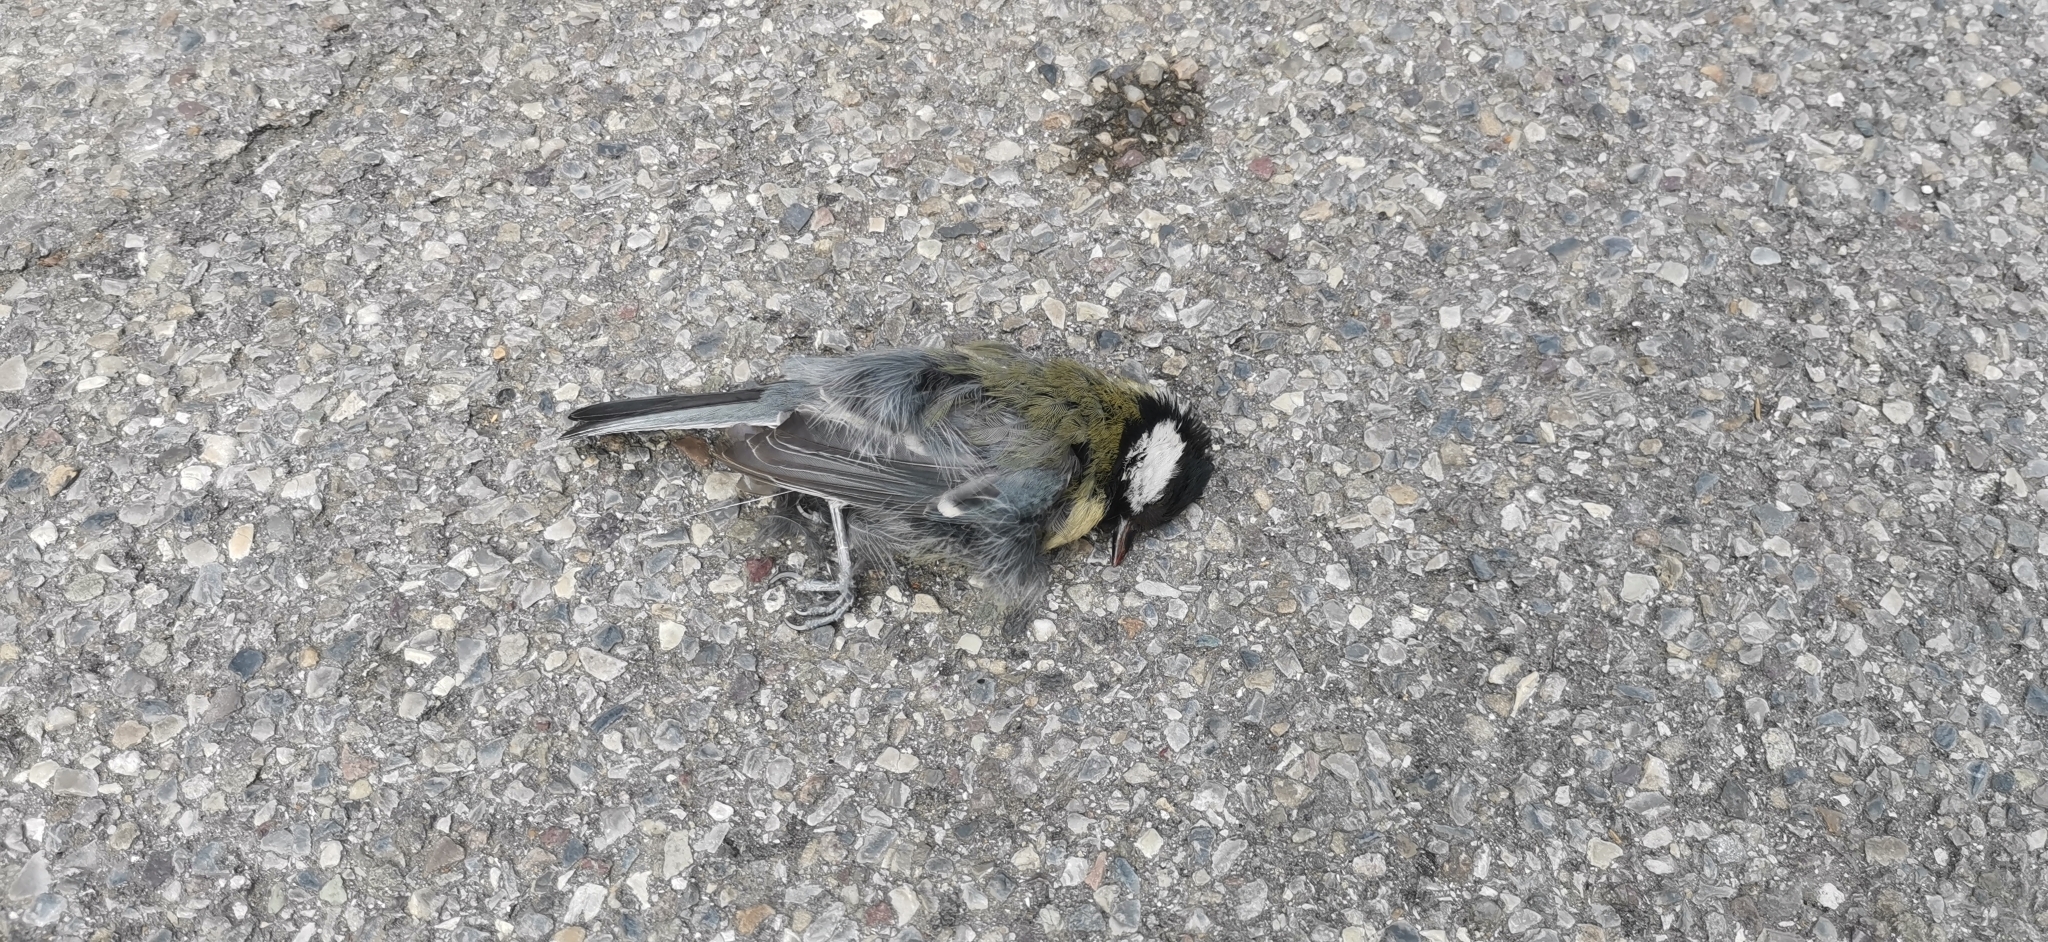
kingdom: Animalia
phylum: Chordata
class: Aves
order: Passeriformes
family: Paridae
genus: Parus
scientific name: Parus major
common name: Great tit
